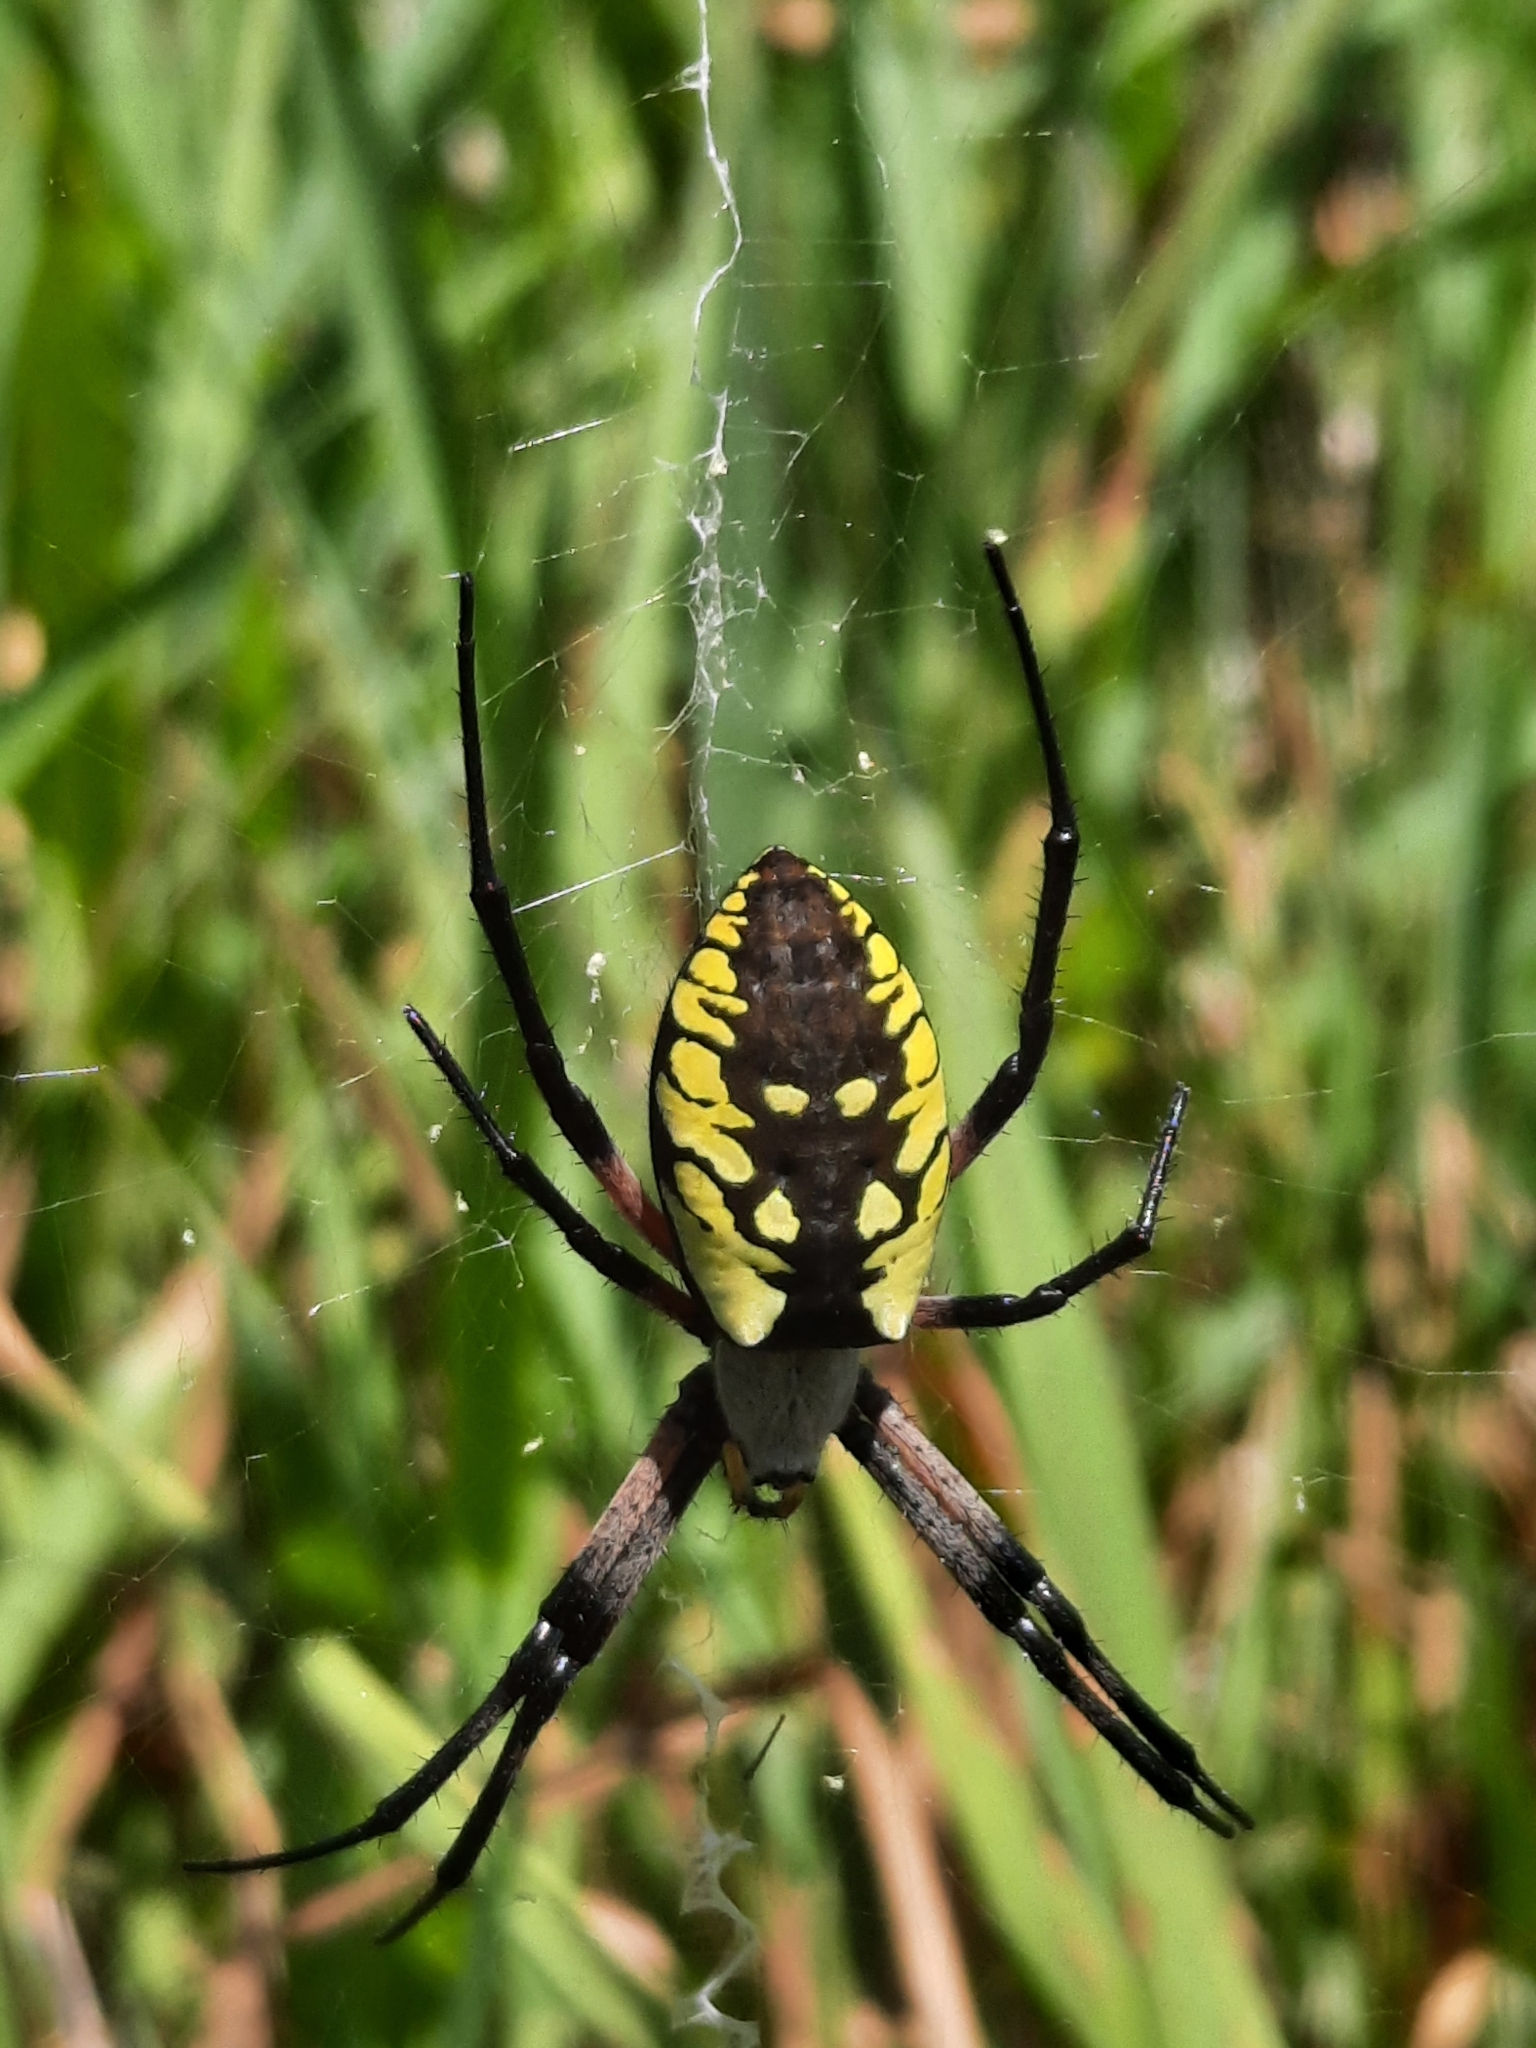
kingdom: Animalia
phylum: Arthropoda
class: Arachnida
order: Araneae
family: Araneidae
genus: Argiope
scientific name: Argiope aurantia
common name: Orb weavers
